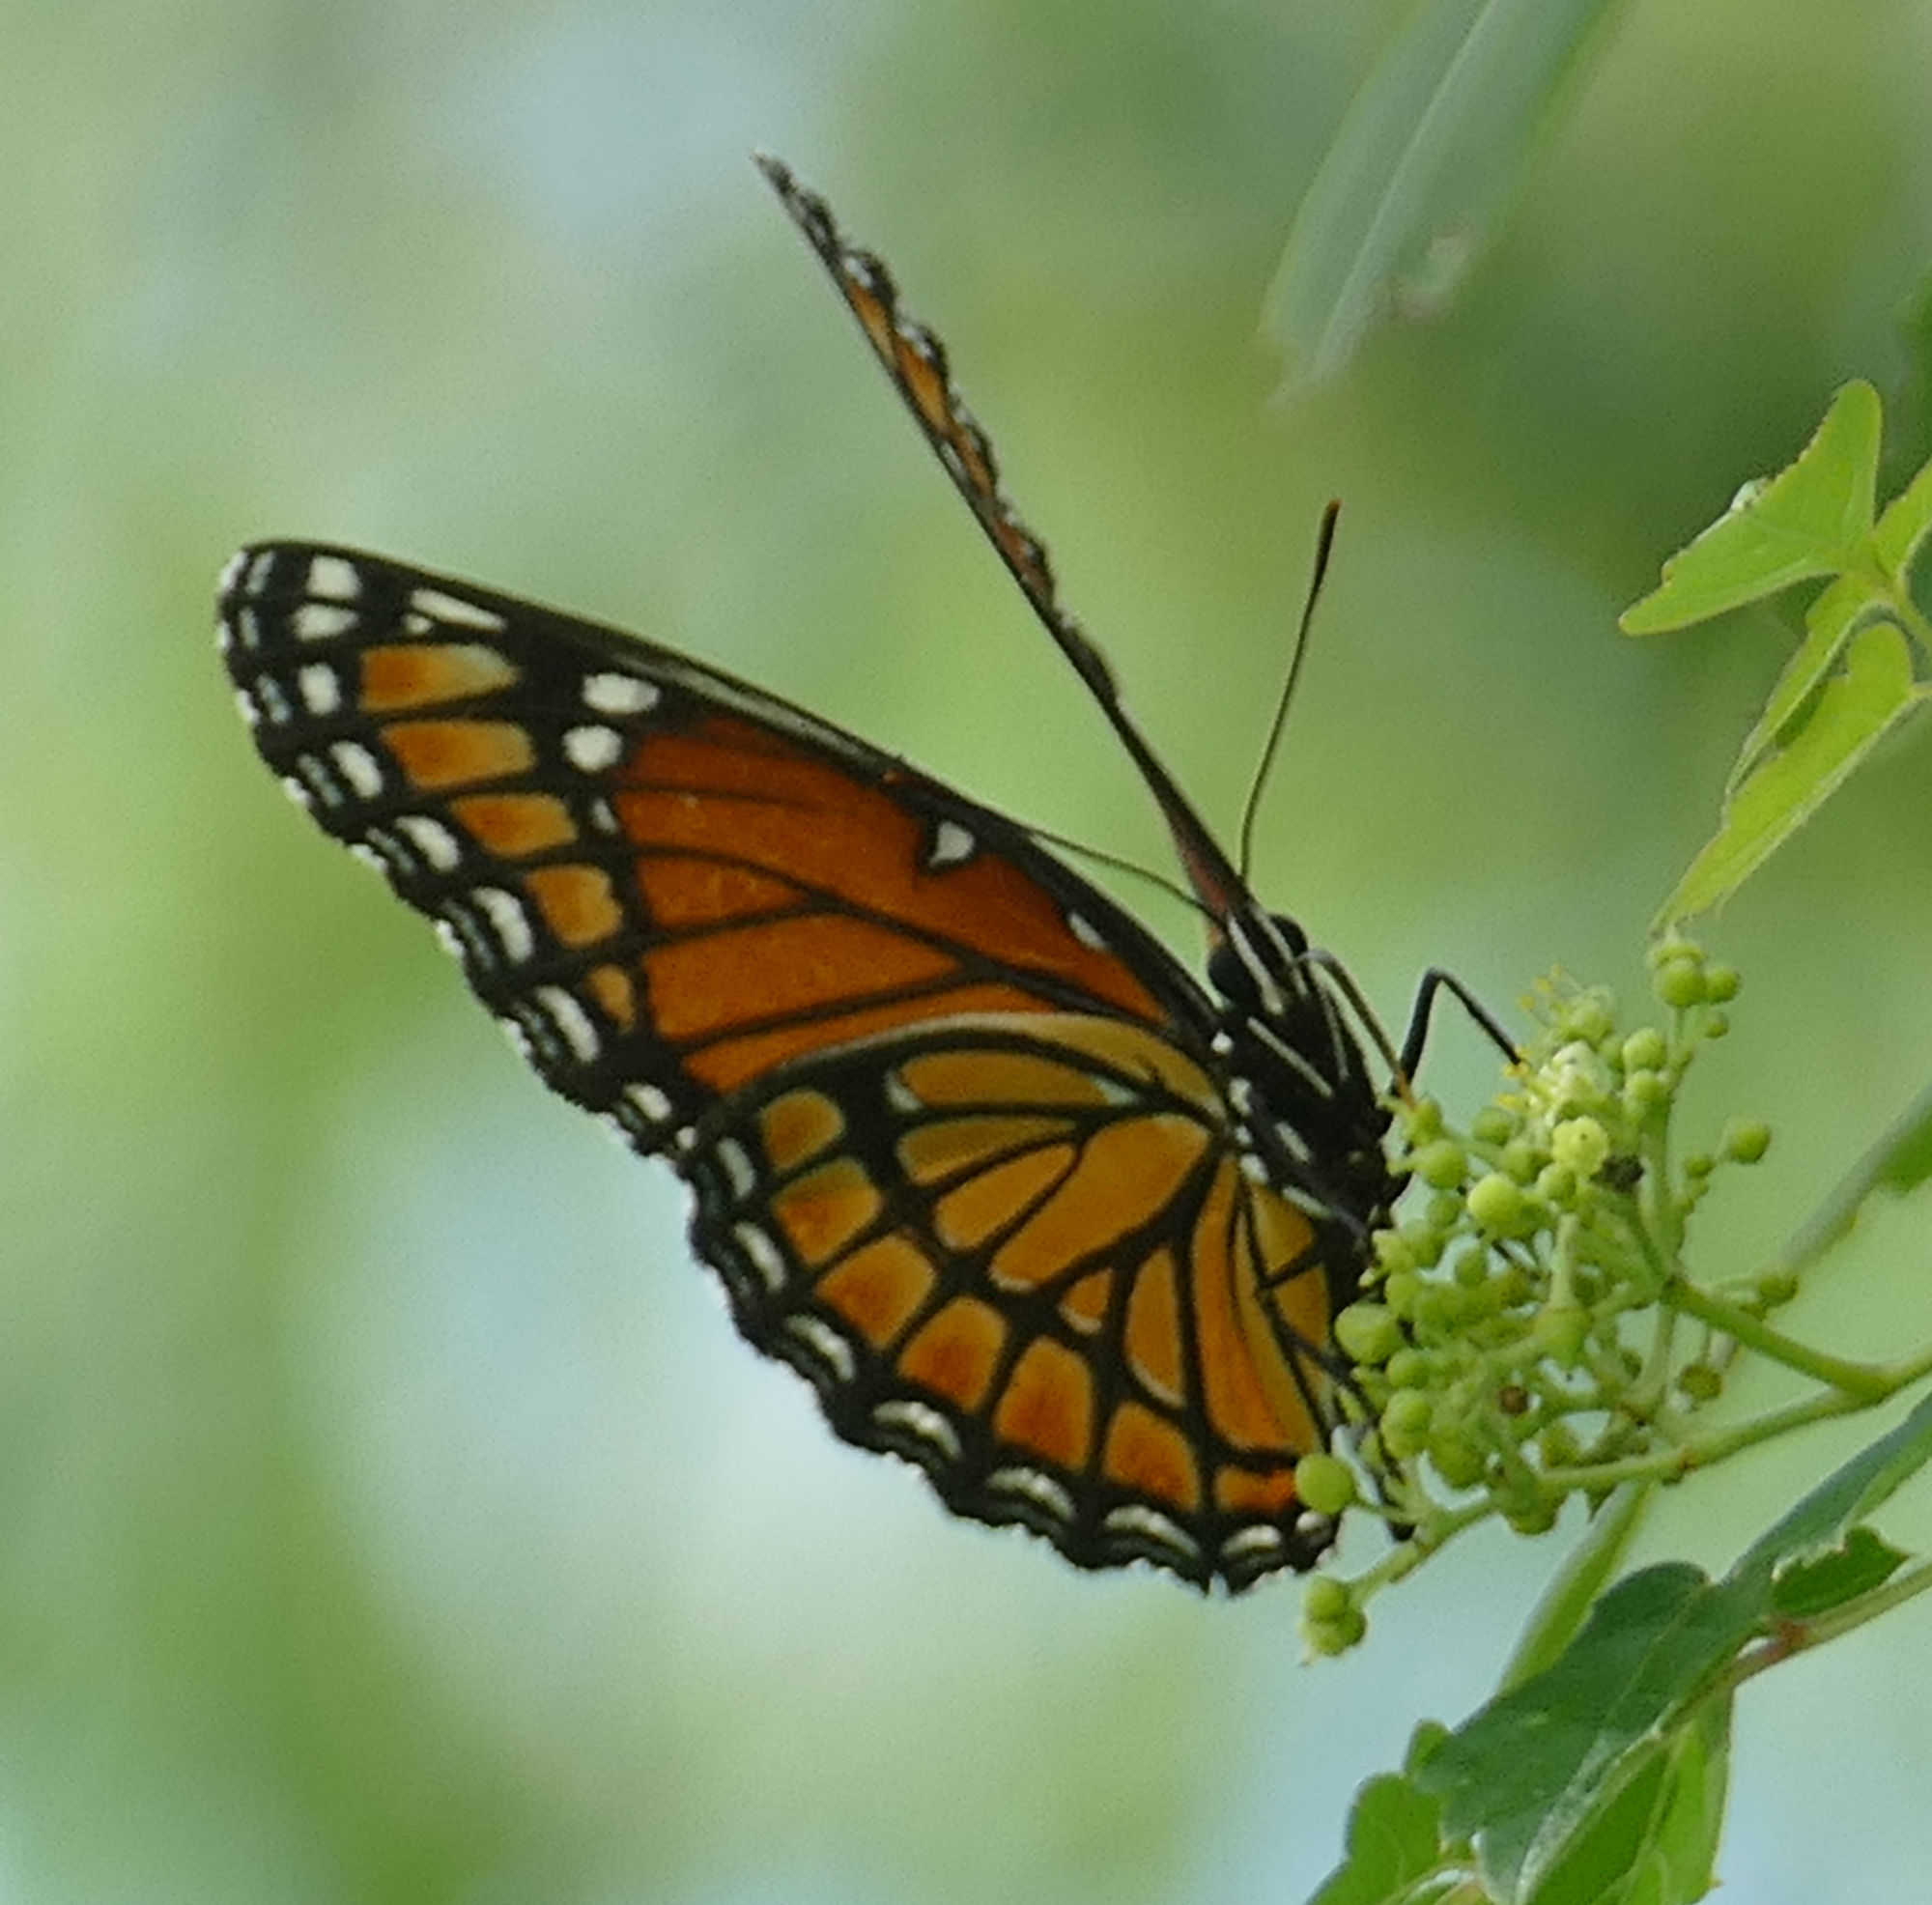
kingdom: Animalia
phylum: Arthropoda
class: Insecta
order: Lepidoptera
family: Nymphalidae
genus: Limenitis
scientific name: Limenitis archippus
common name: Viceroy
